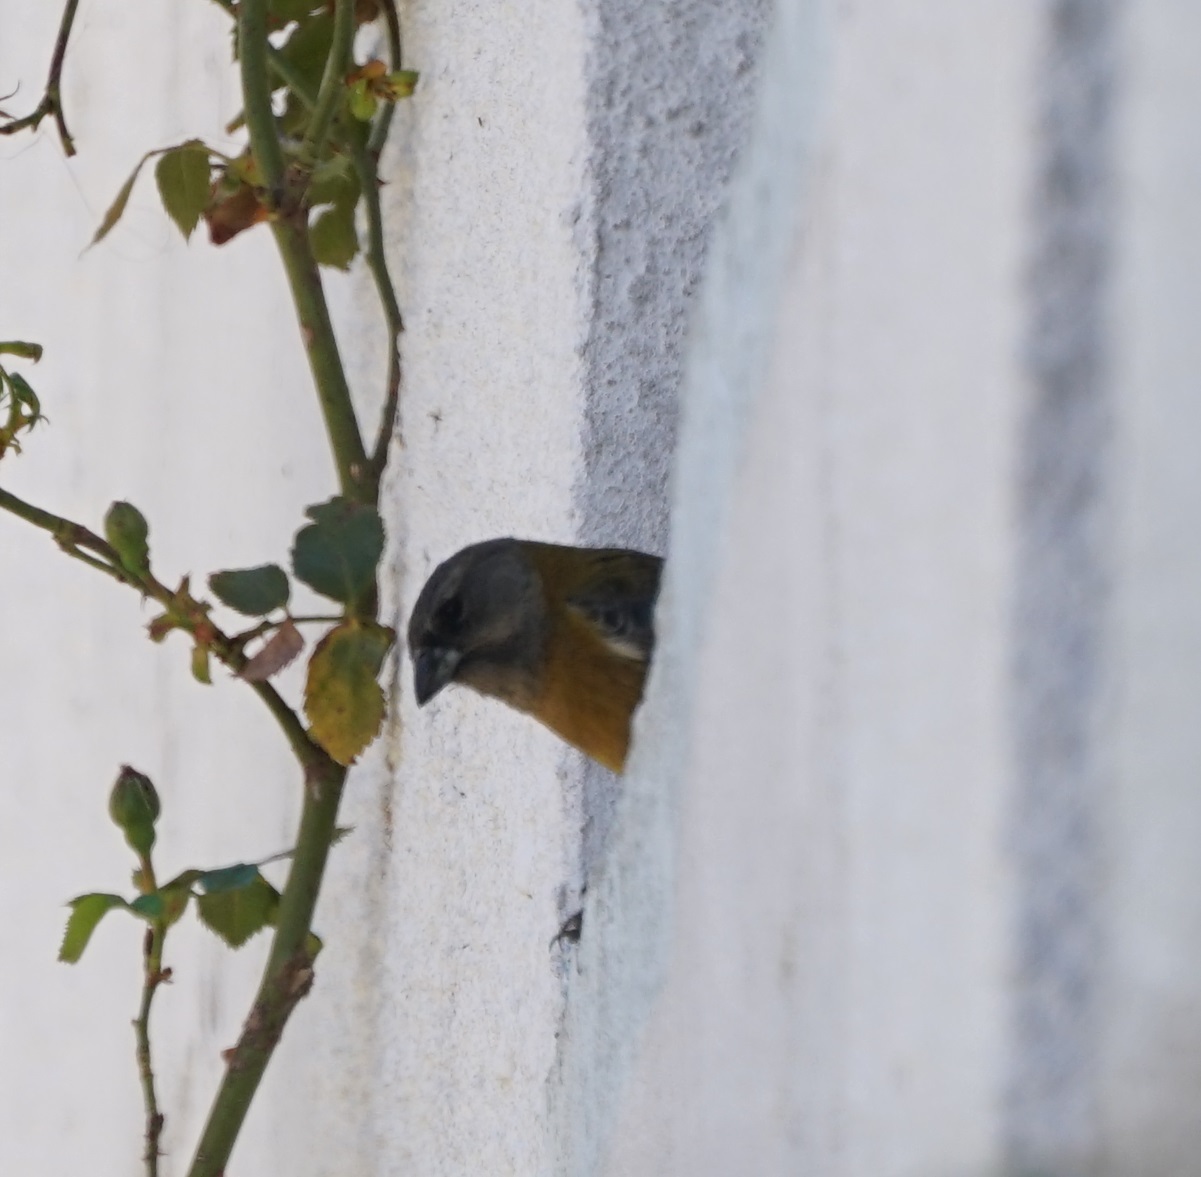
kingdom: Animalia
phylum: Chordata
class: Aves
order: Passeriformes
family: Thraupidae
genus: Phrygilus
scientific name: Phrygilus punensis
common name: Peruvian sierra finch
